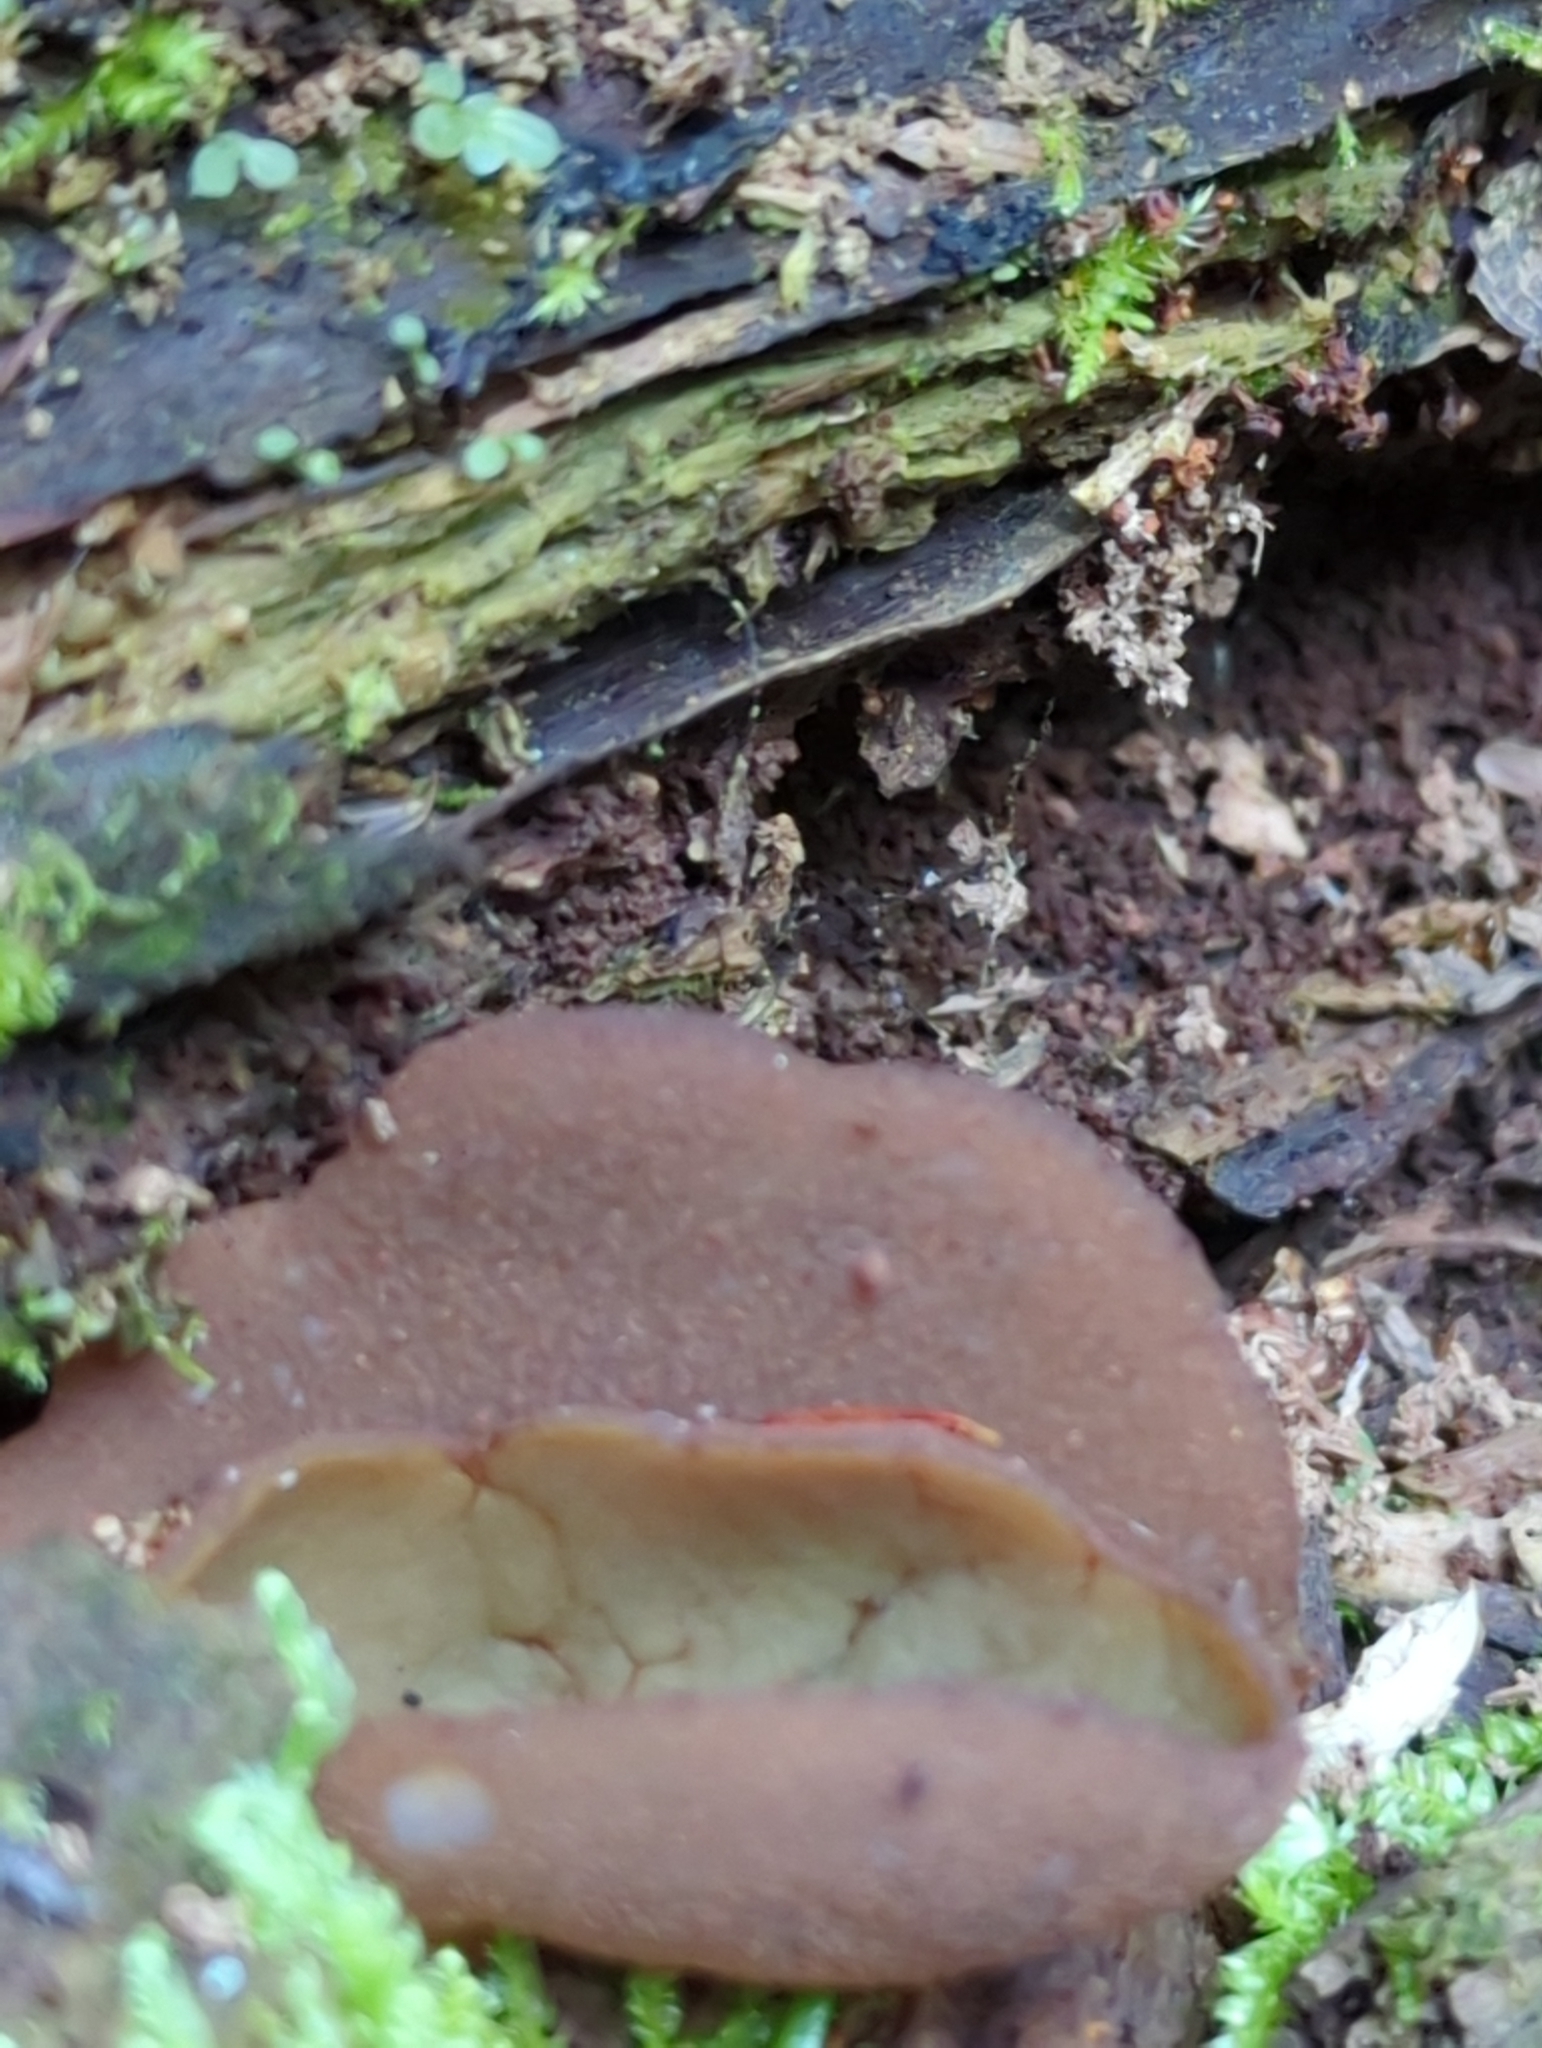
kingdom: Fungi
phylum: Ascomycota
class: Pezizomycetes
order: Pezizales
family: Pezizaceae
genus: Phylloscypha
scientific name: Phylloscypha phyllogena
